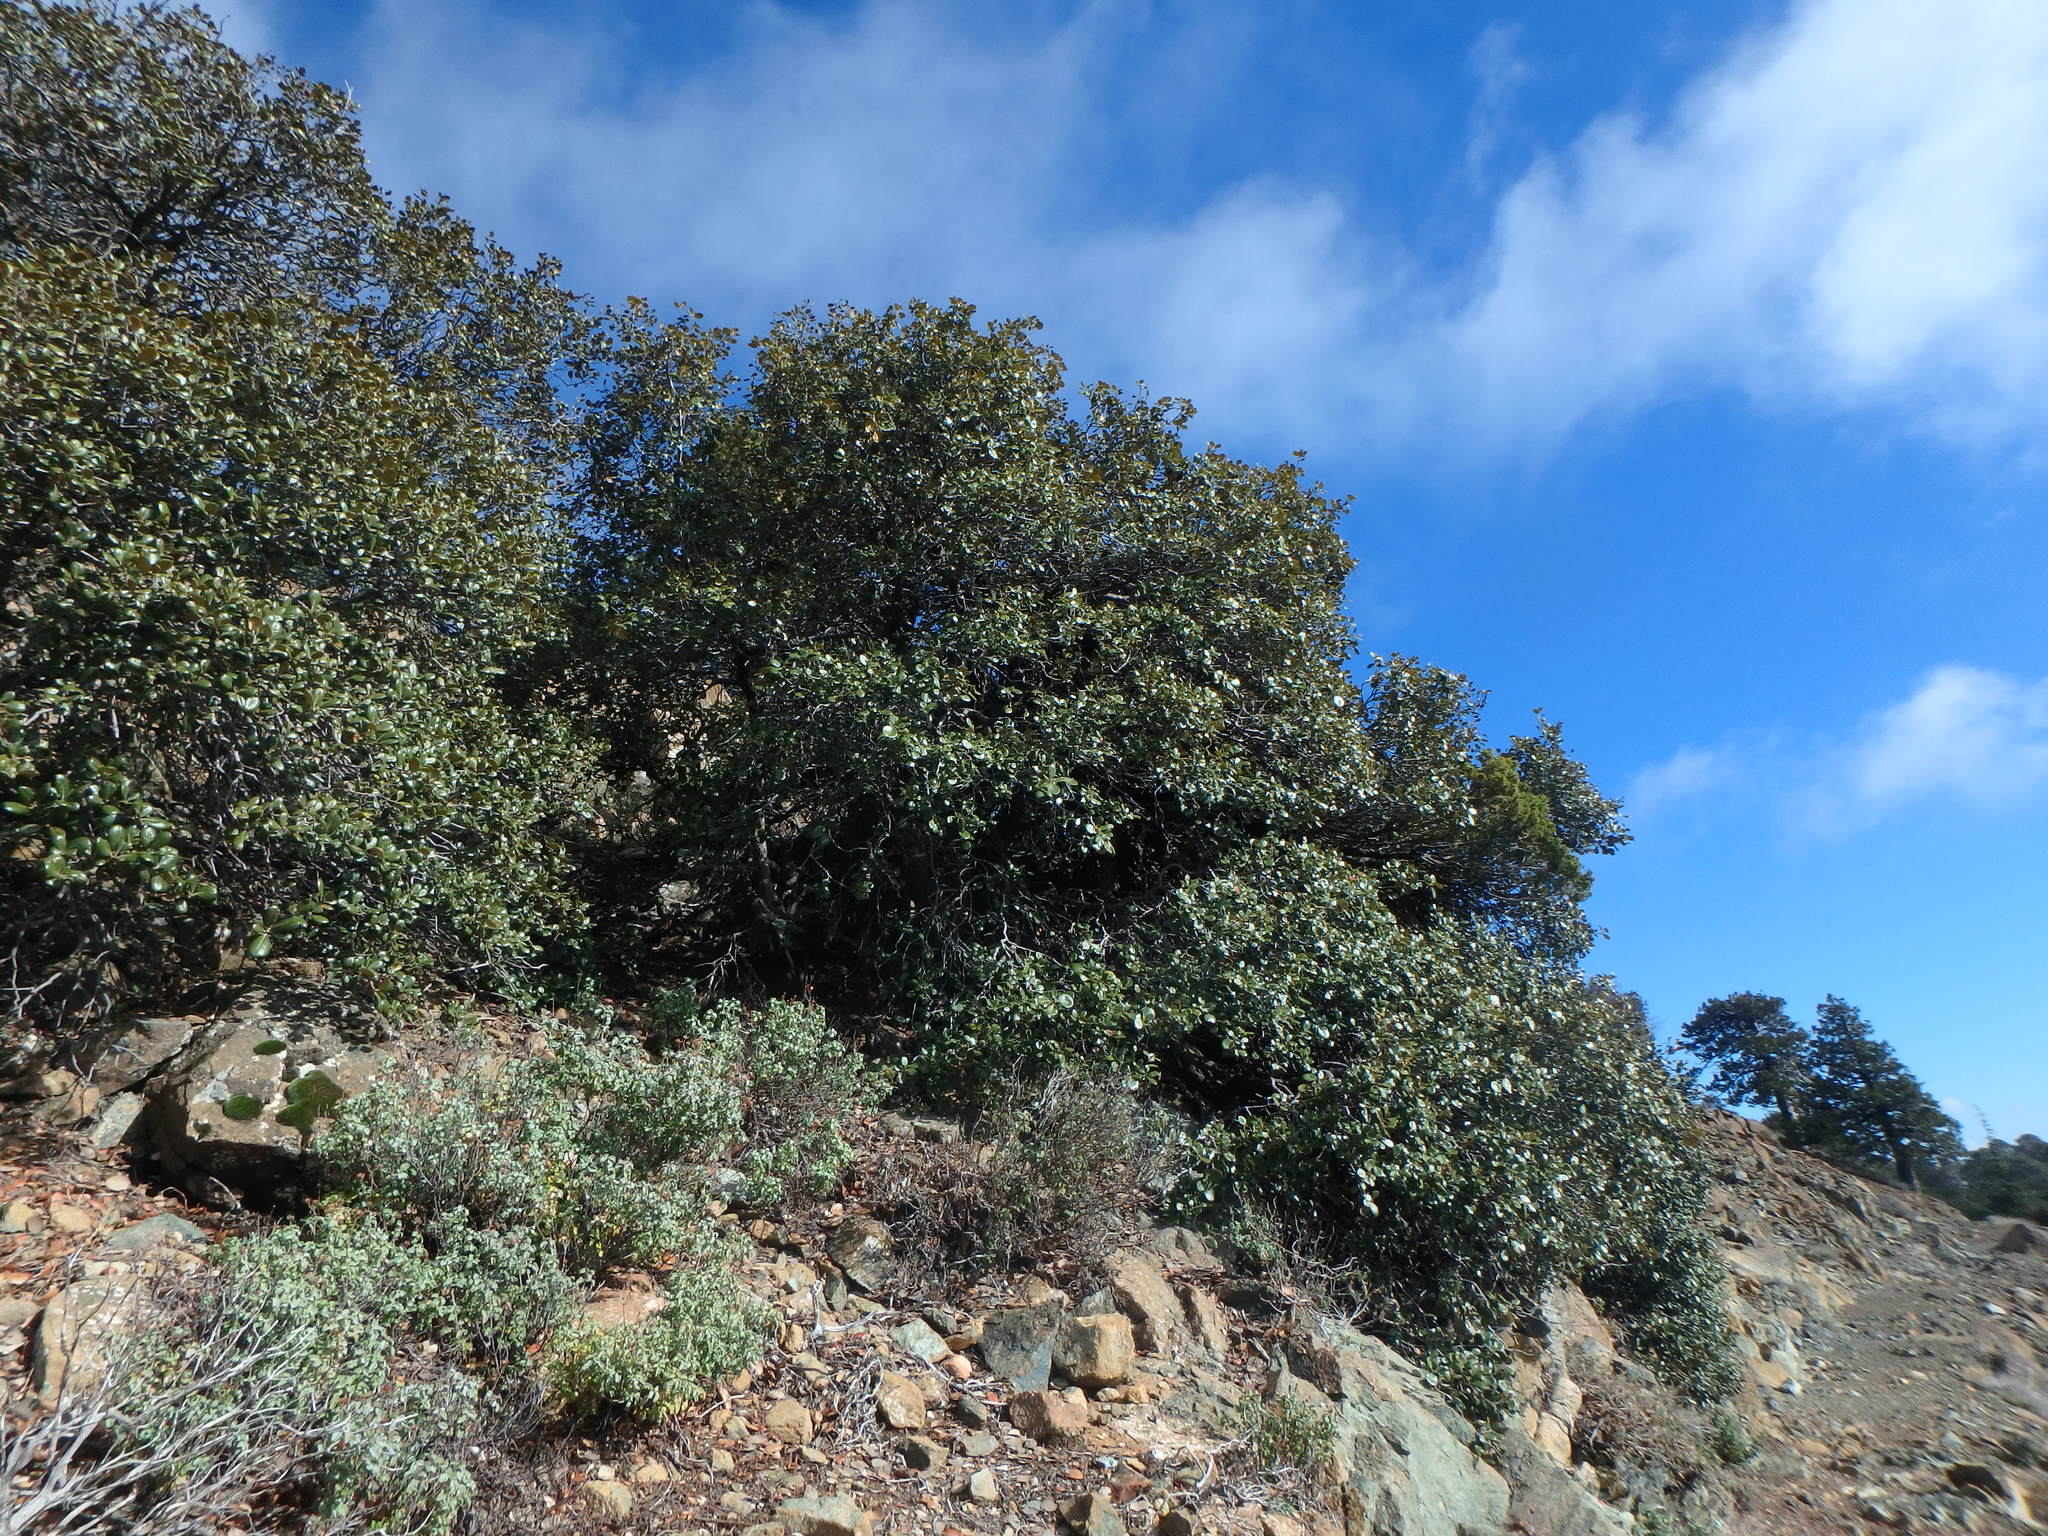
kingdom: Plantae
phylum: Tracheophyta
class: Magnoliopsida
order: Fagales
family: Fagaceae
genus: Quercus
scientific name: Quercus alnifolia
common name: Golden oak
